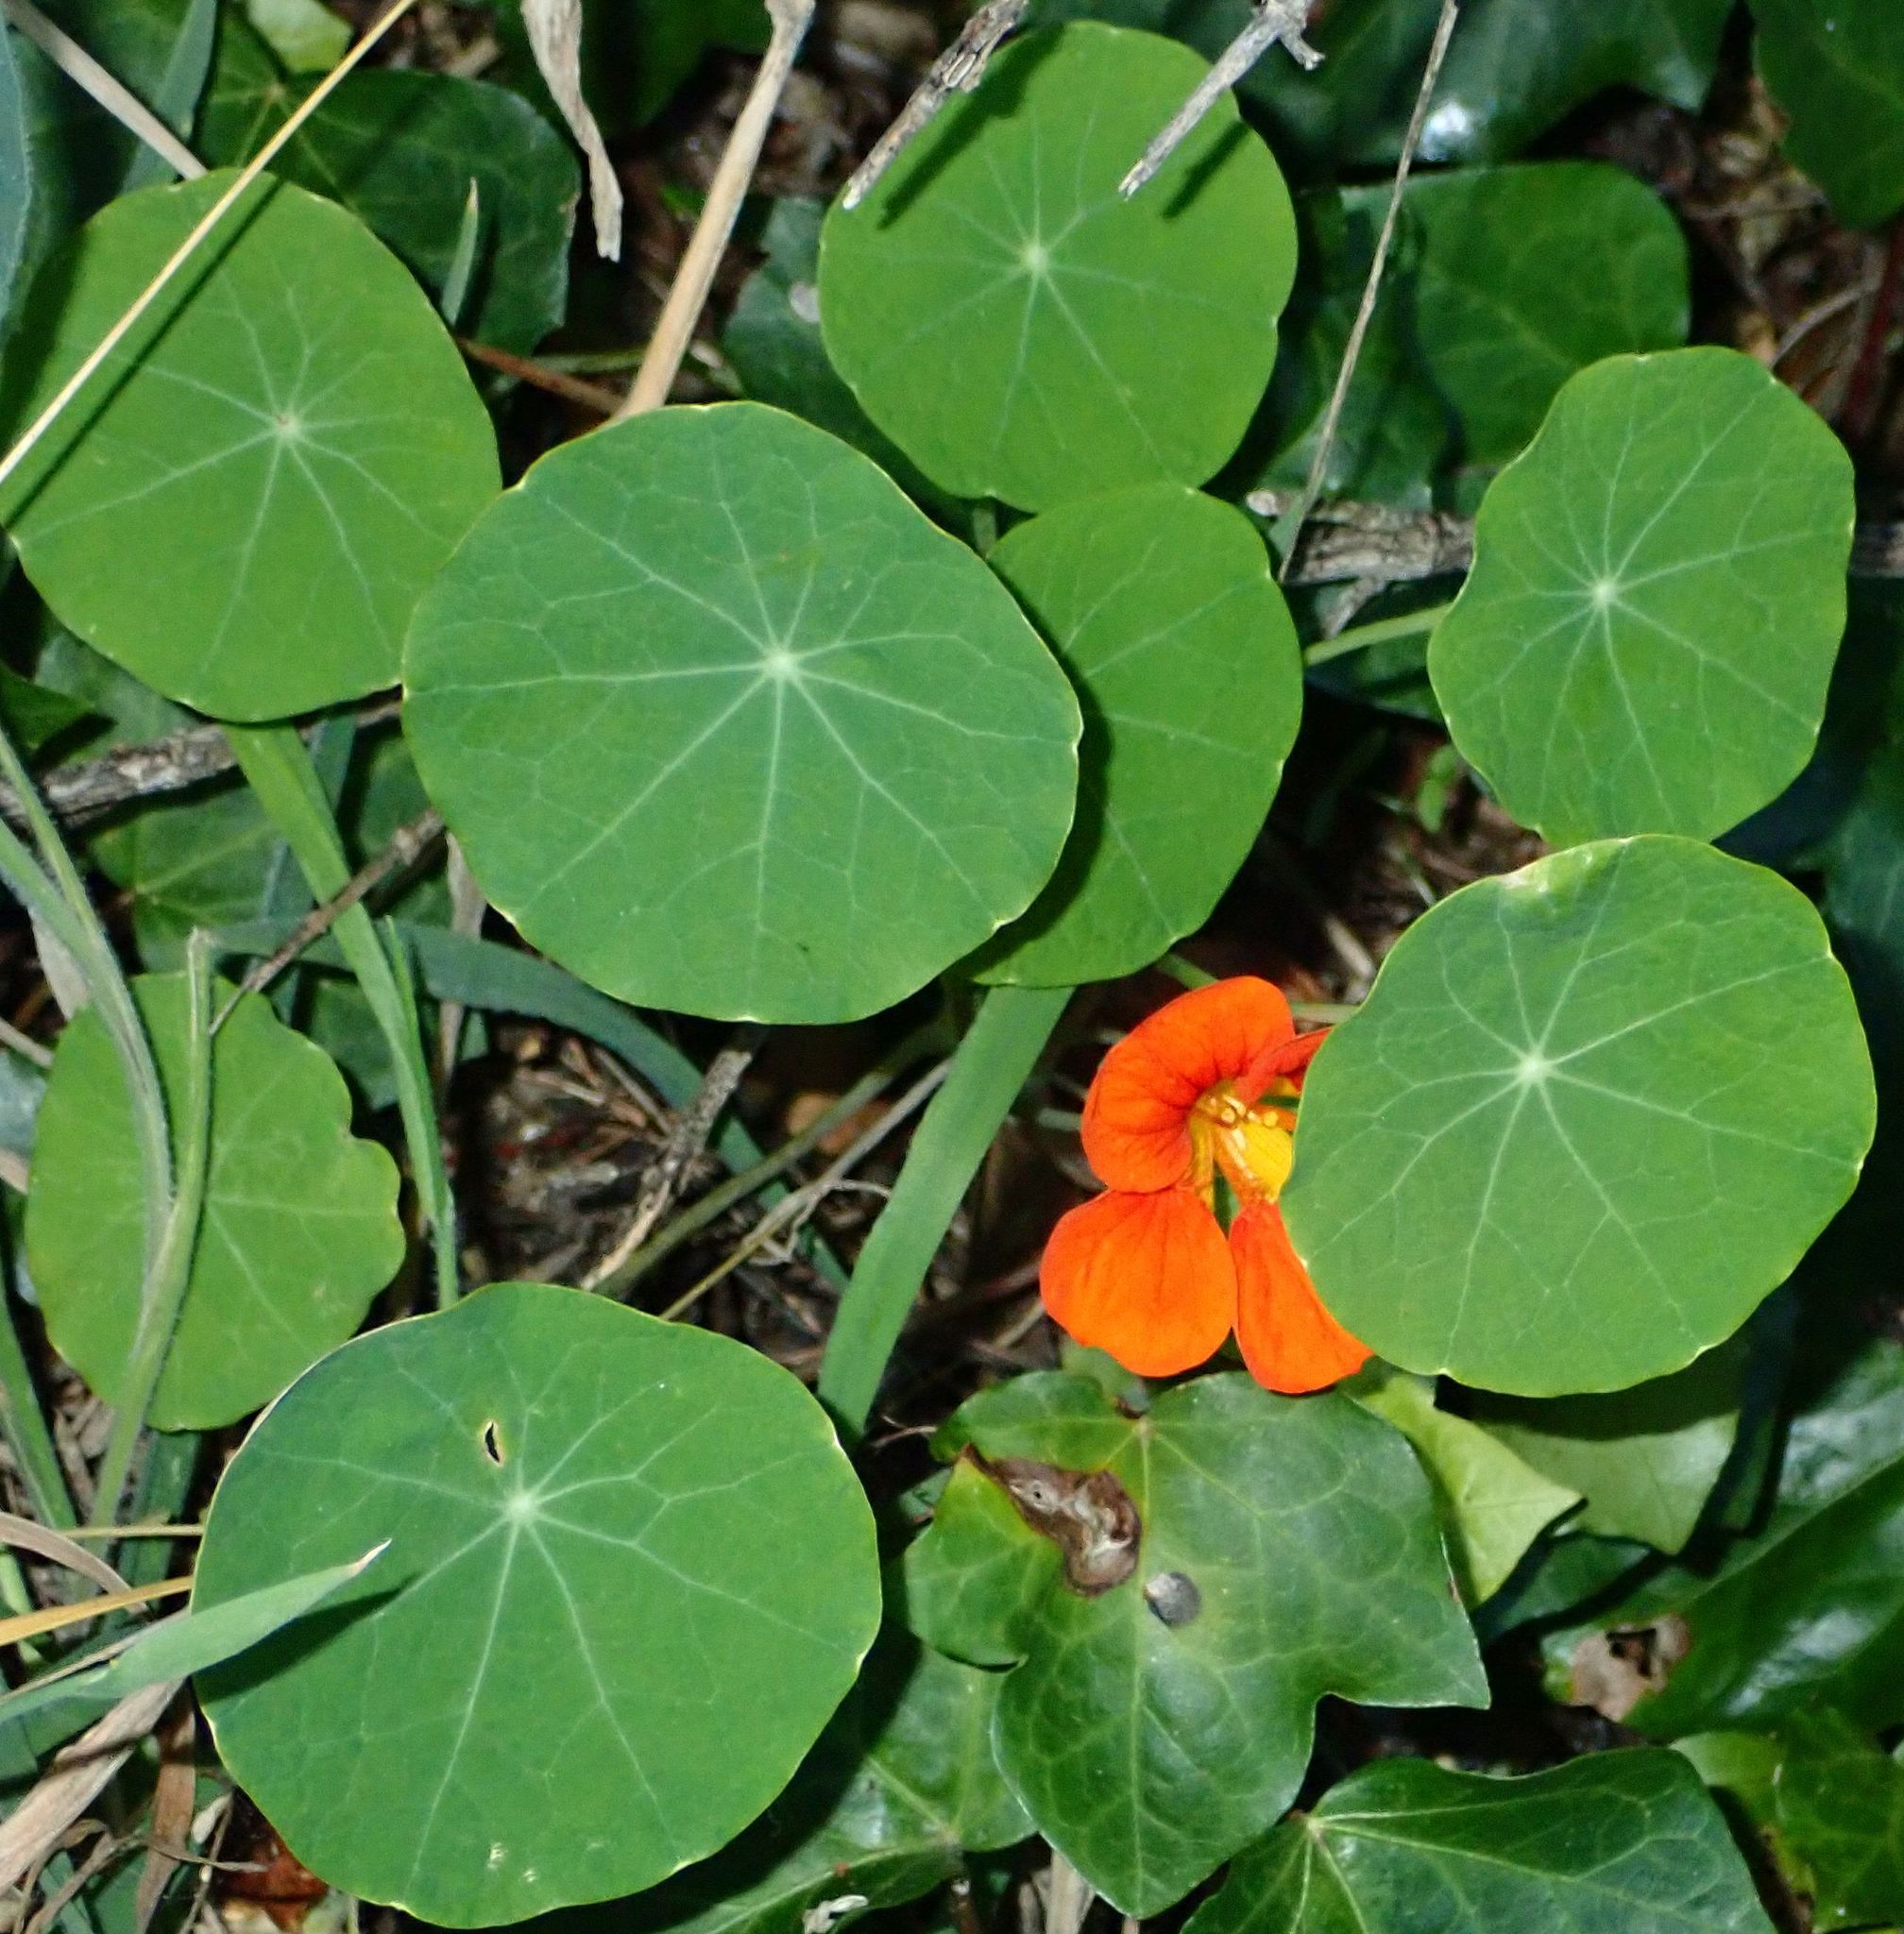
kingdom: Plantae
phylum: Tracheophyta
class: Magnoliopsida
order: Brassicales
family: Tropaeolaceae
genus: Tropaeolum
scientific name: Tropaeolum majus
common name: Nasturtium
